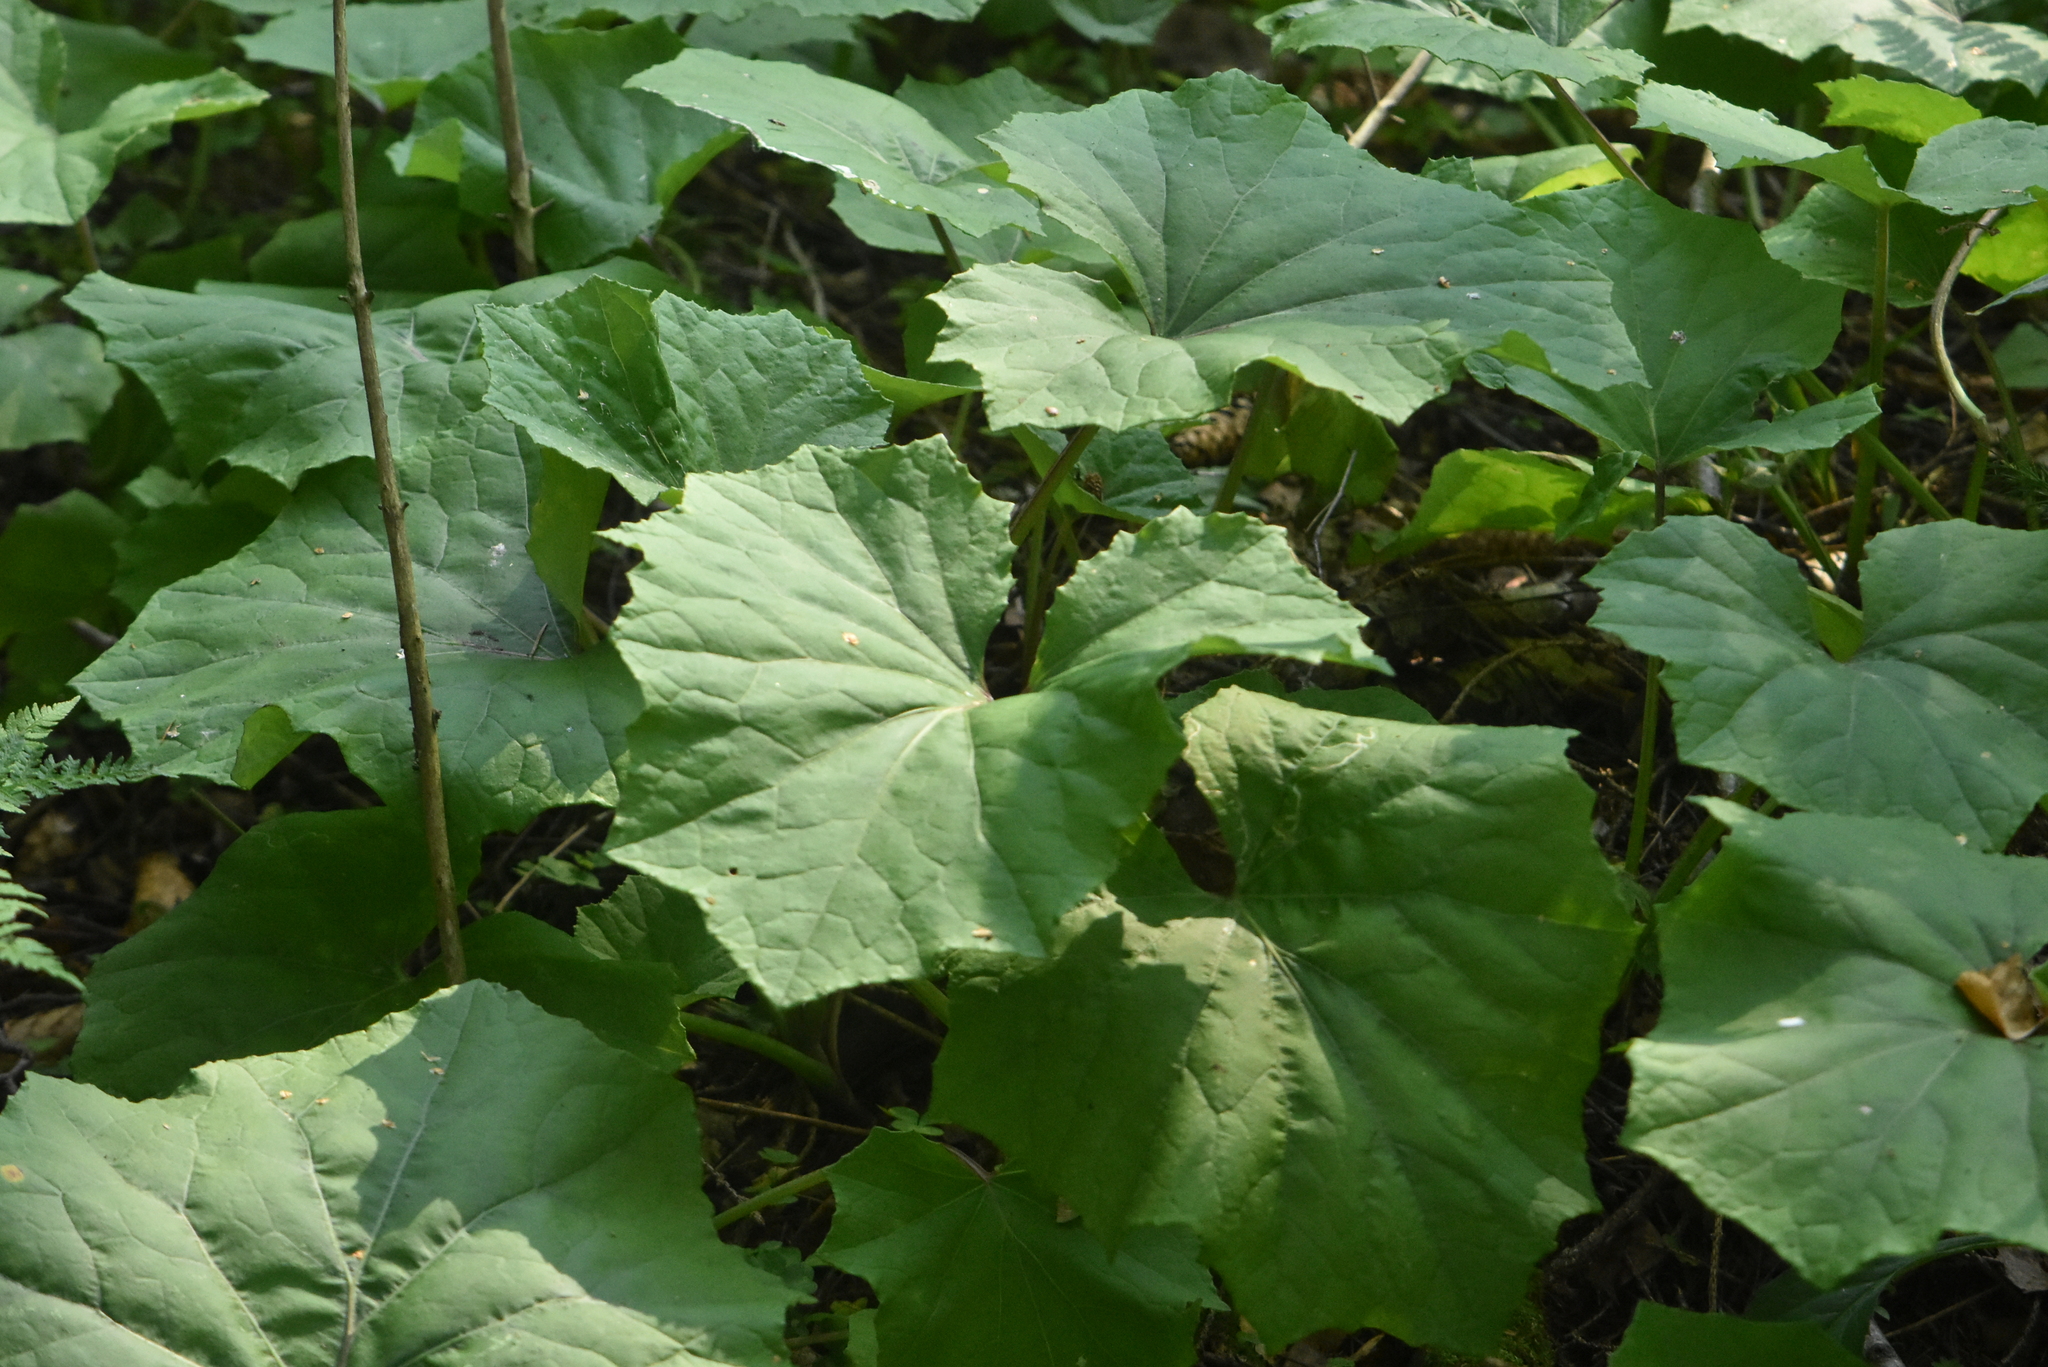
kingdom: Plantae
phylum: Tracheophyta
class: Magnoliopsida
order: Asterales
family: Asteraceae
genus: Tussilago
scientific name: Tussilago farfara
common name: Coltsfoot
